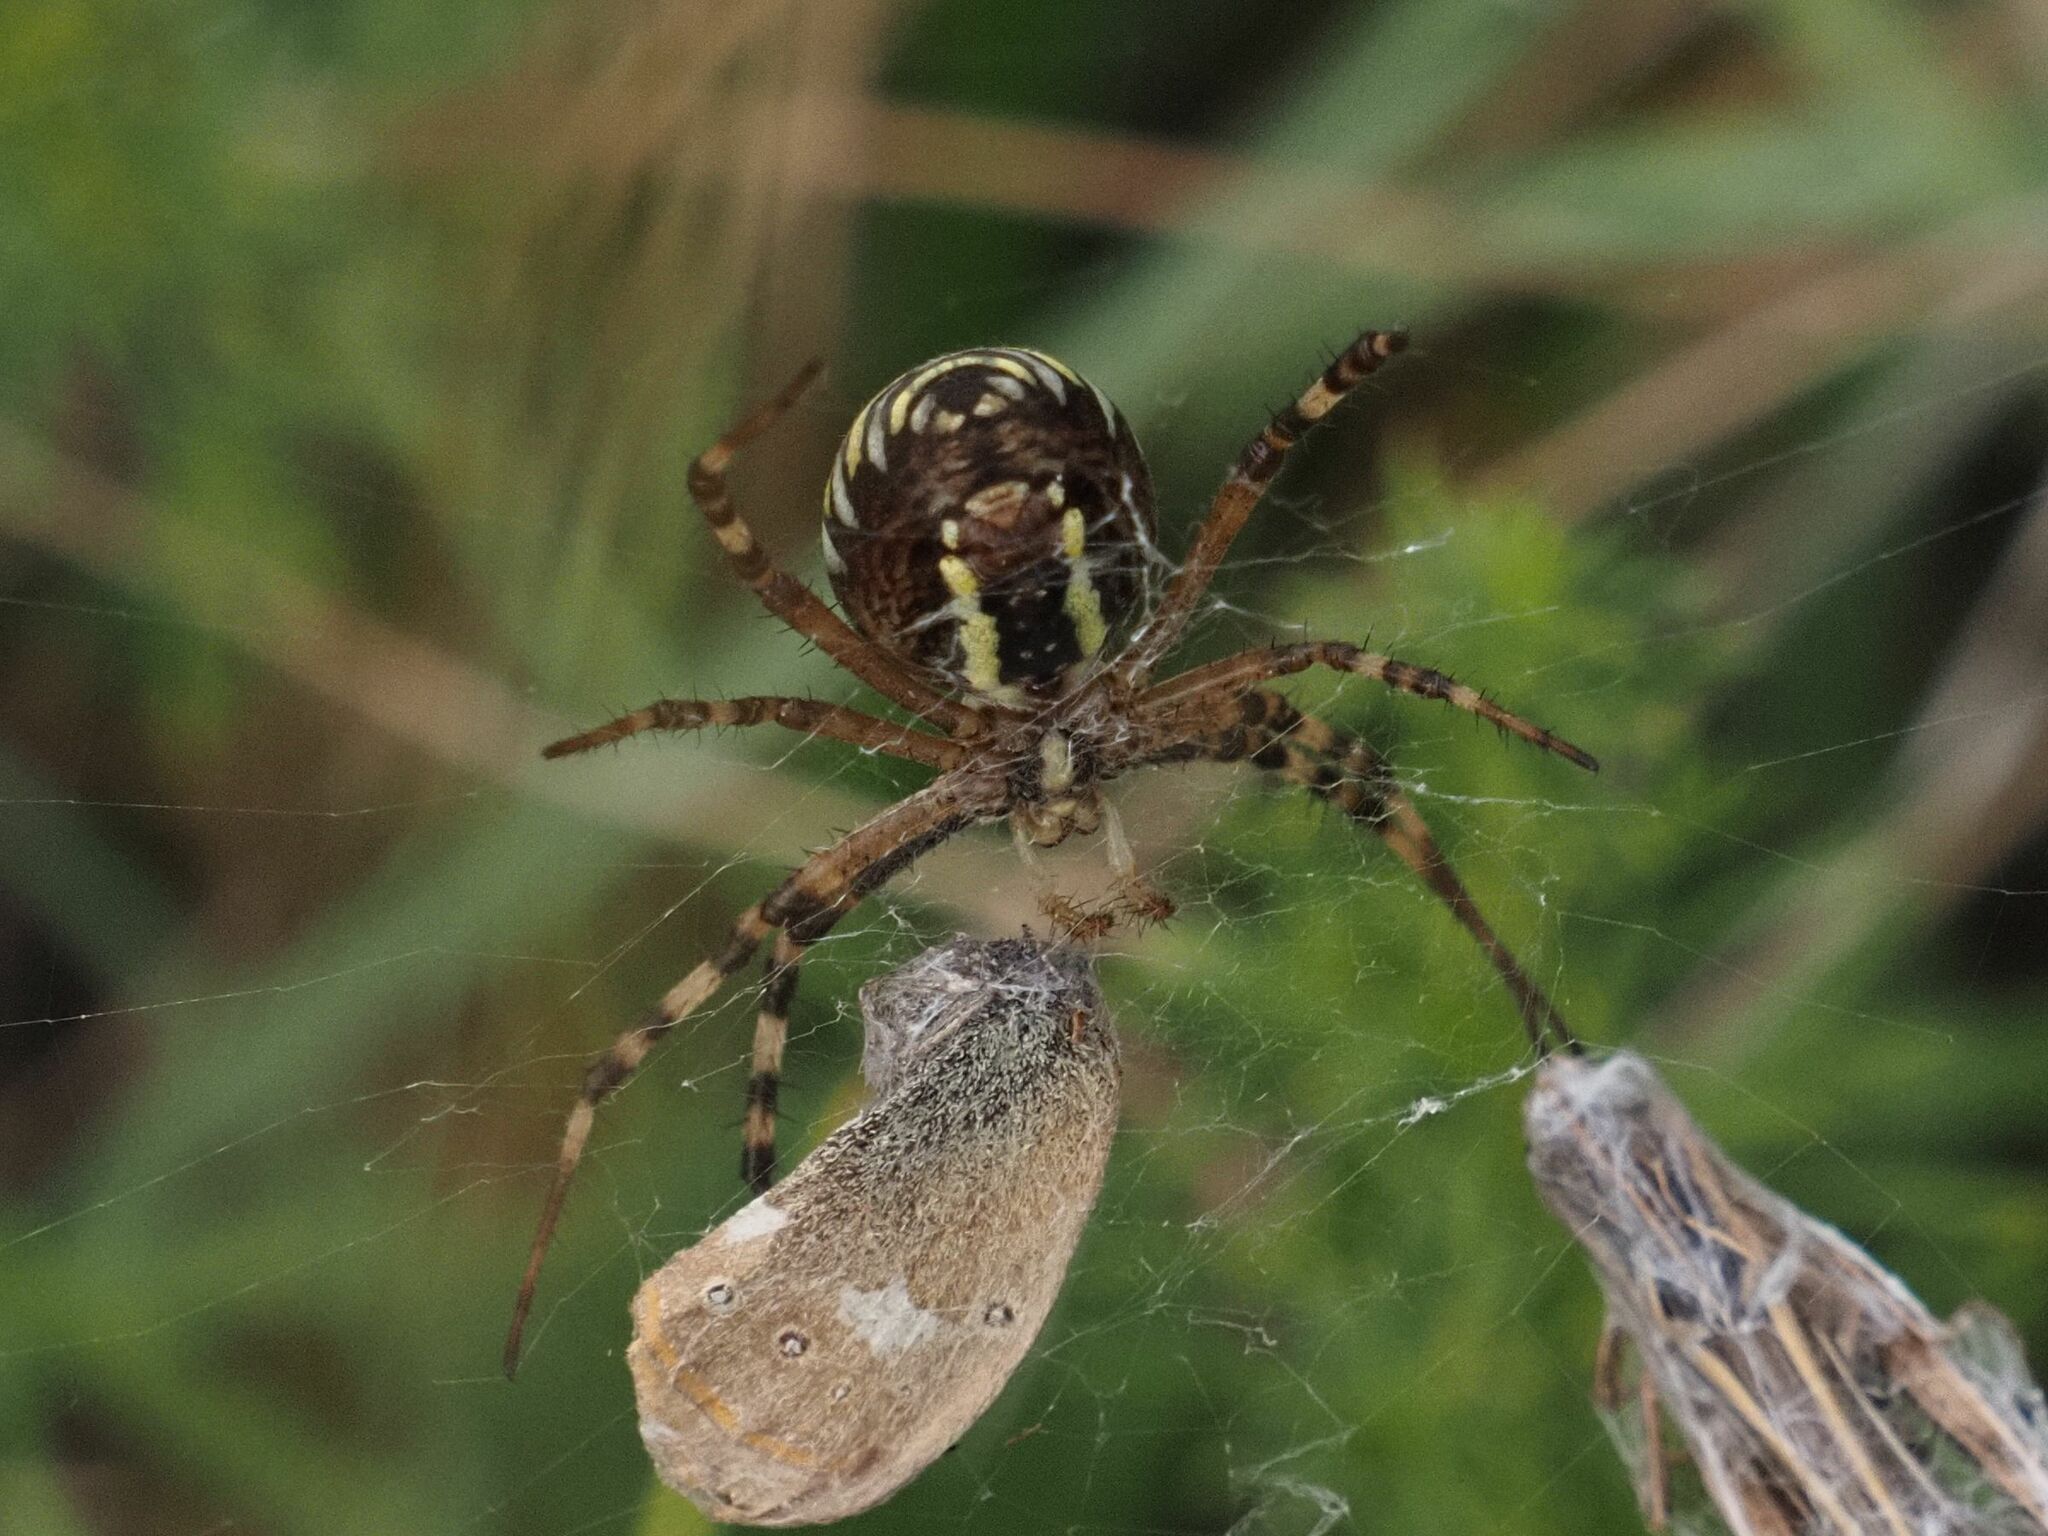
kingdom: Animalia
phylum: Arthropoda
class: Arachnida
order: Araneae
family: Araneidae
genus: Argiope
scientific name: Argiope bruennichi
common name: Wasp spider
